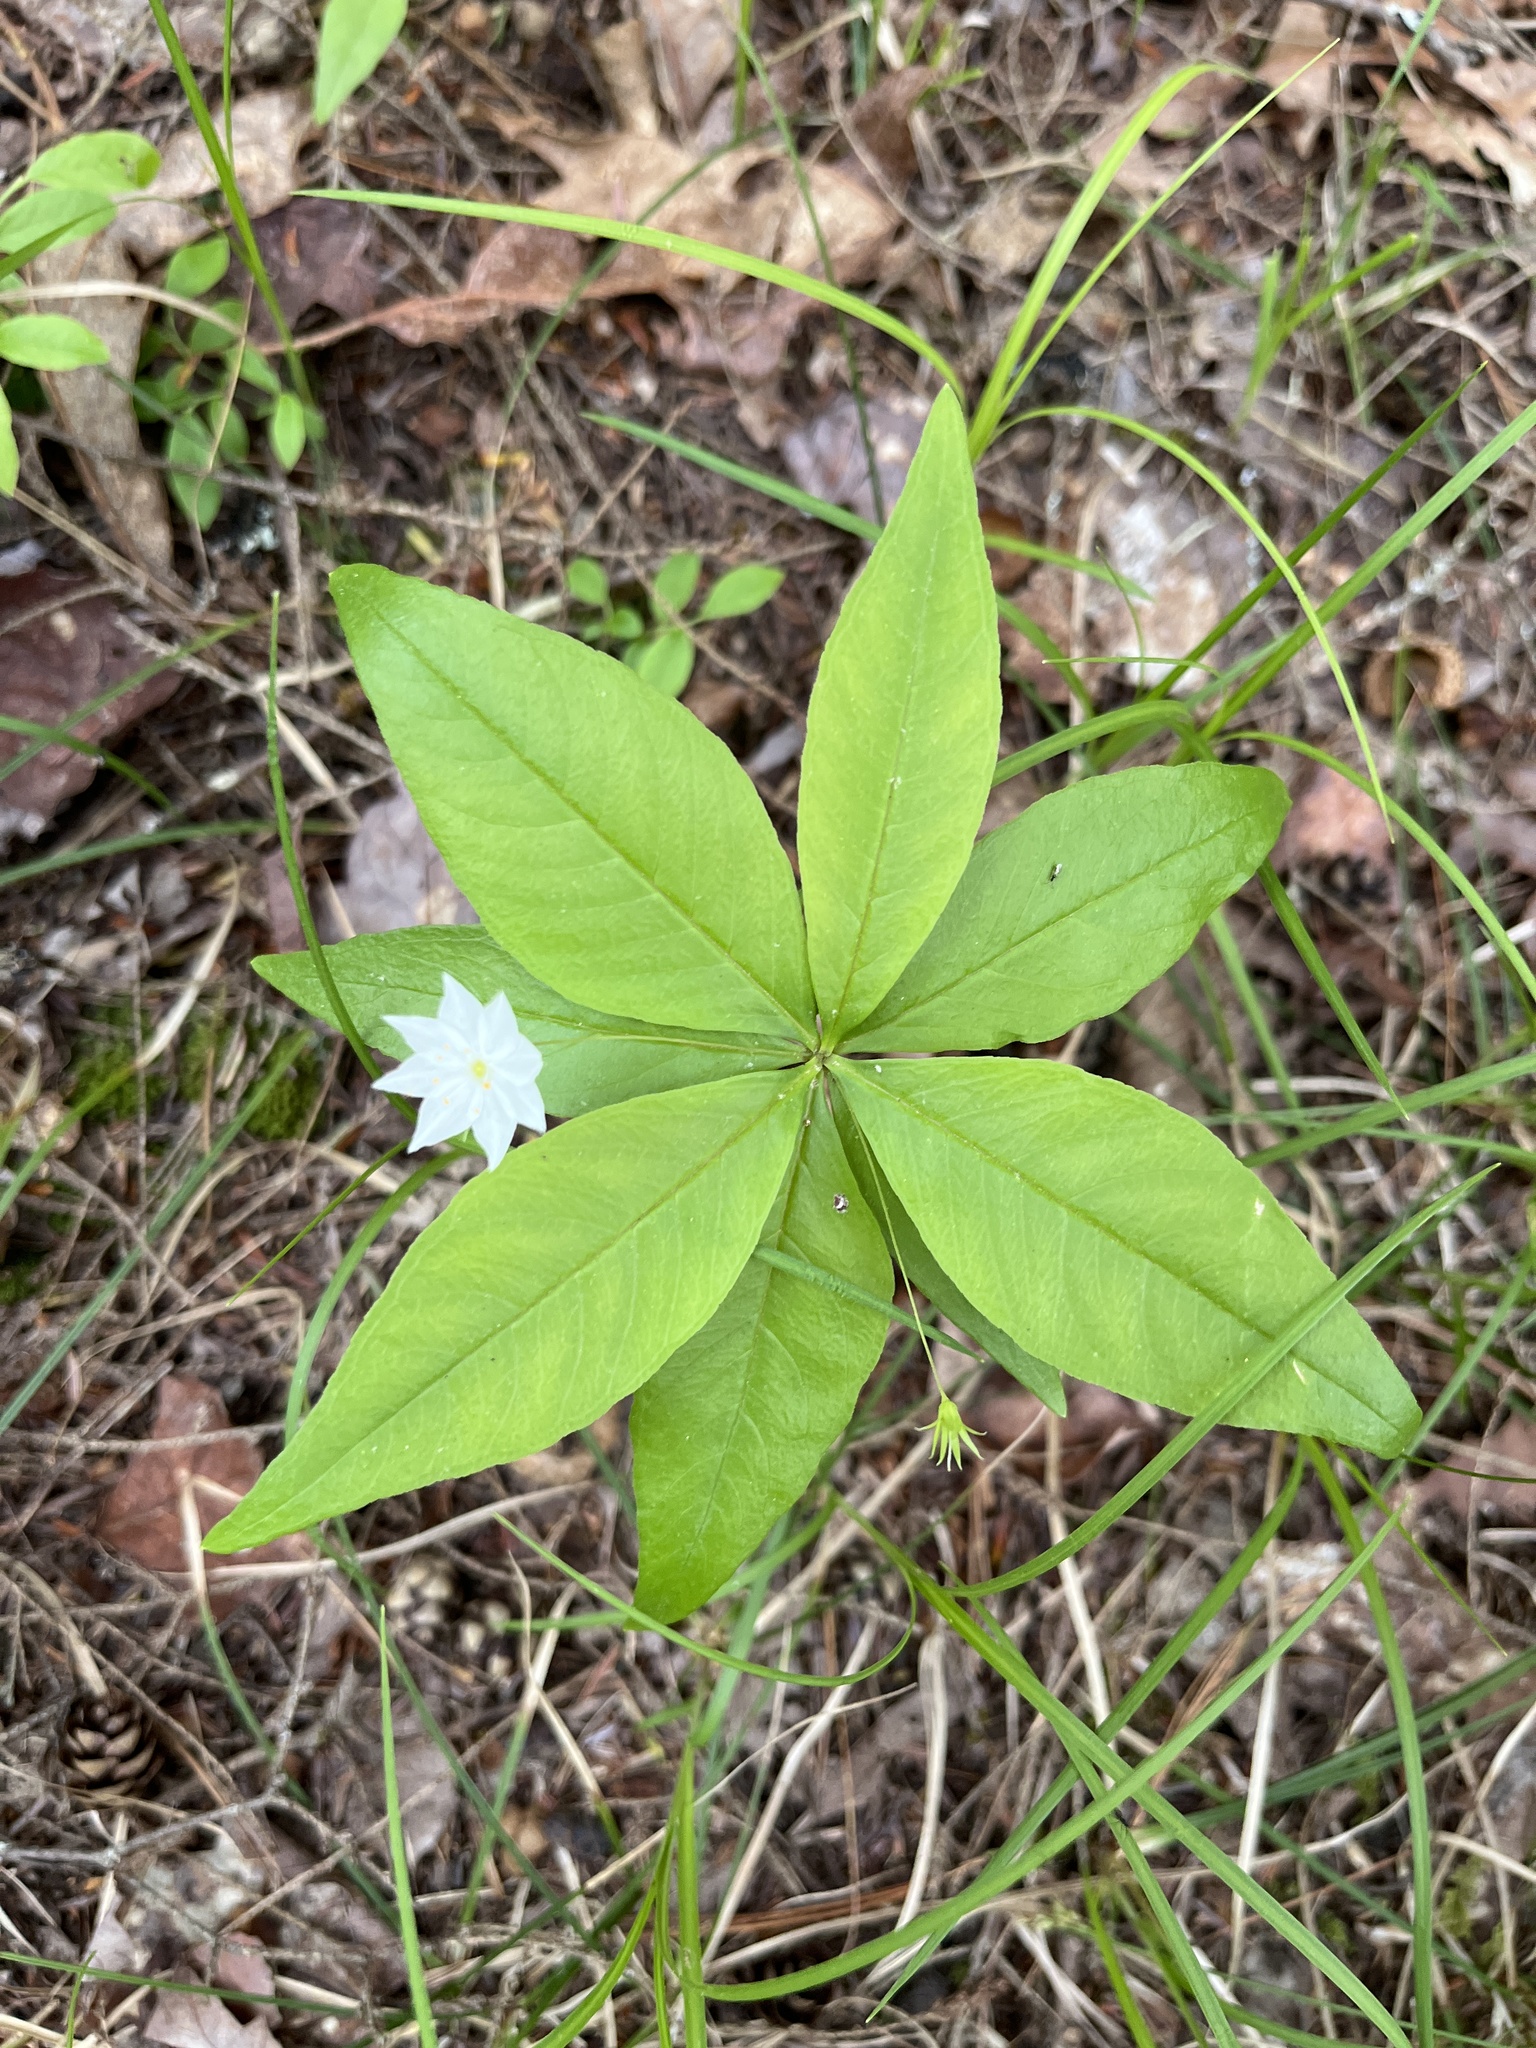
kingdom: Plantae
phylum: Tracheophyta
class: Magnoliopsida
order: Ericales
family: Primulaceae
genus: Lysimachia
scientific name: Lysimachia borealis
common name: American starflower
